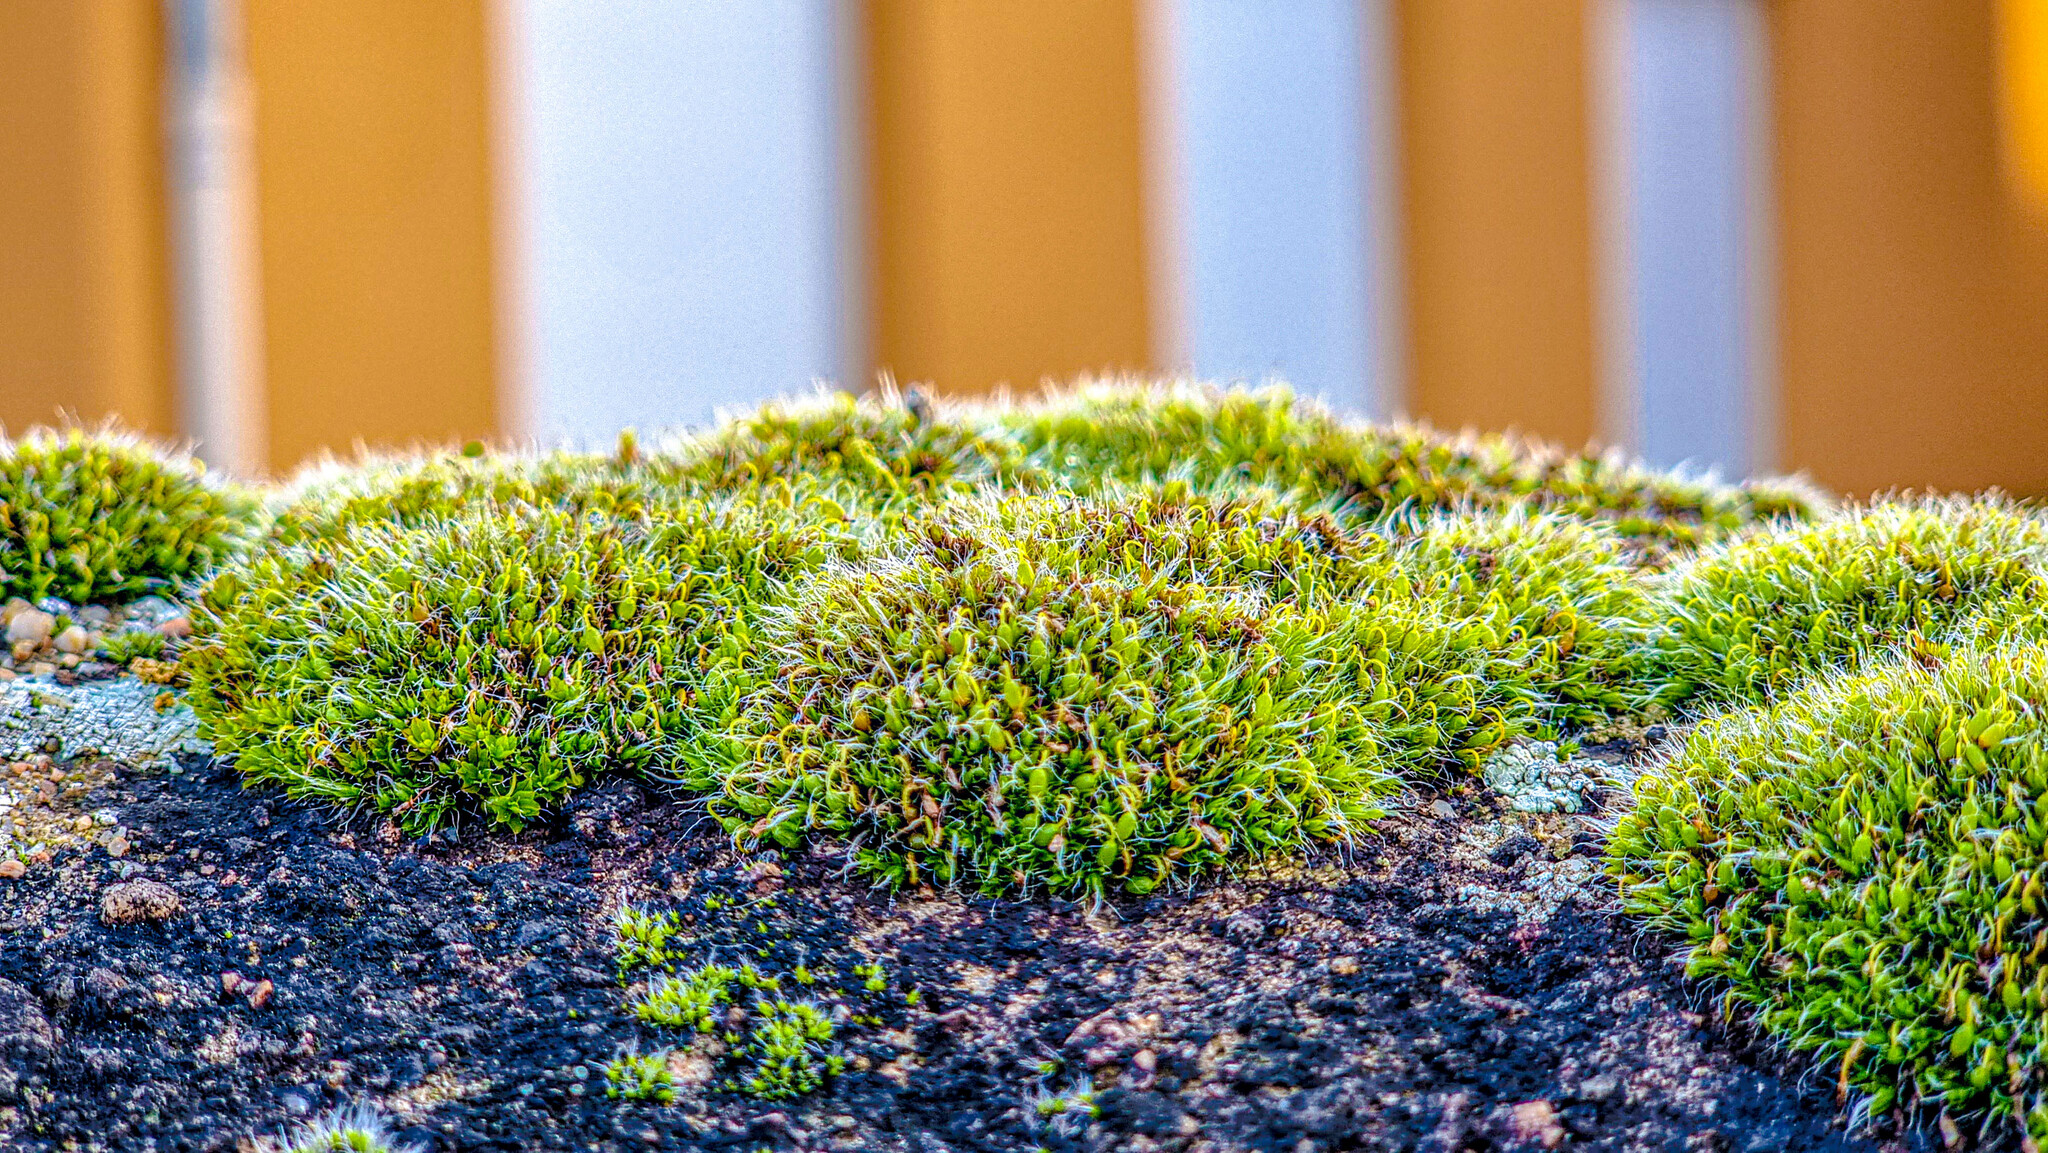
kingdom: Plantae
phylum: Bryophyta
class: Bryopsida
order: Grimmiales
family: Grimmiaceae
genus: Grimmia
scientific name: Grimmia pulvinata
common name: Grey-cushioned grimmia
